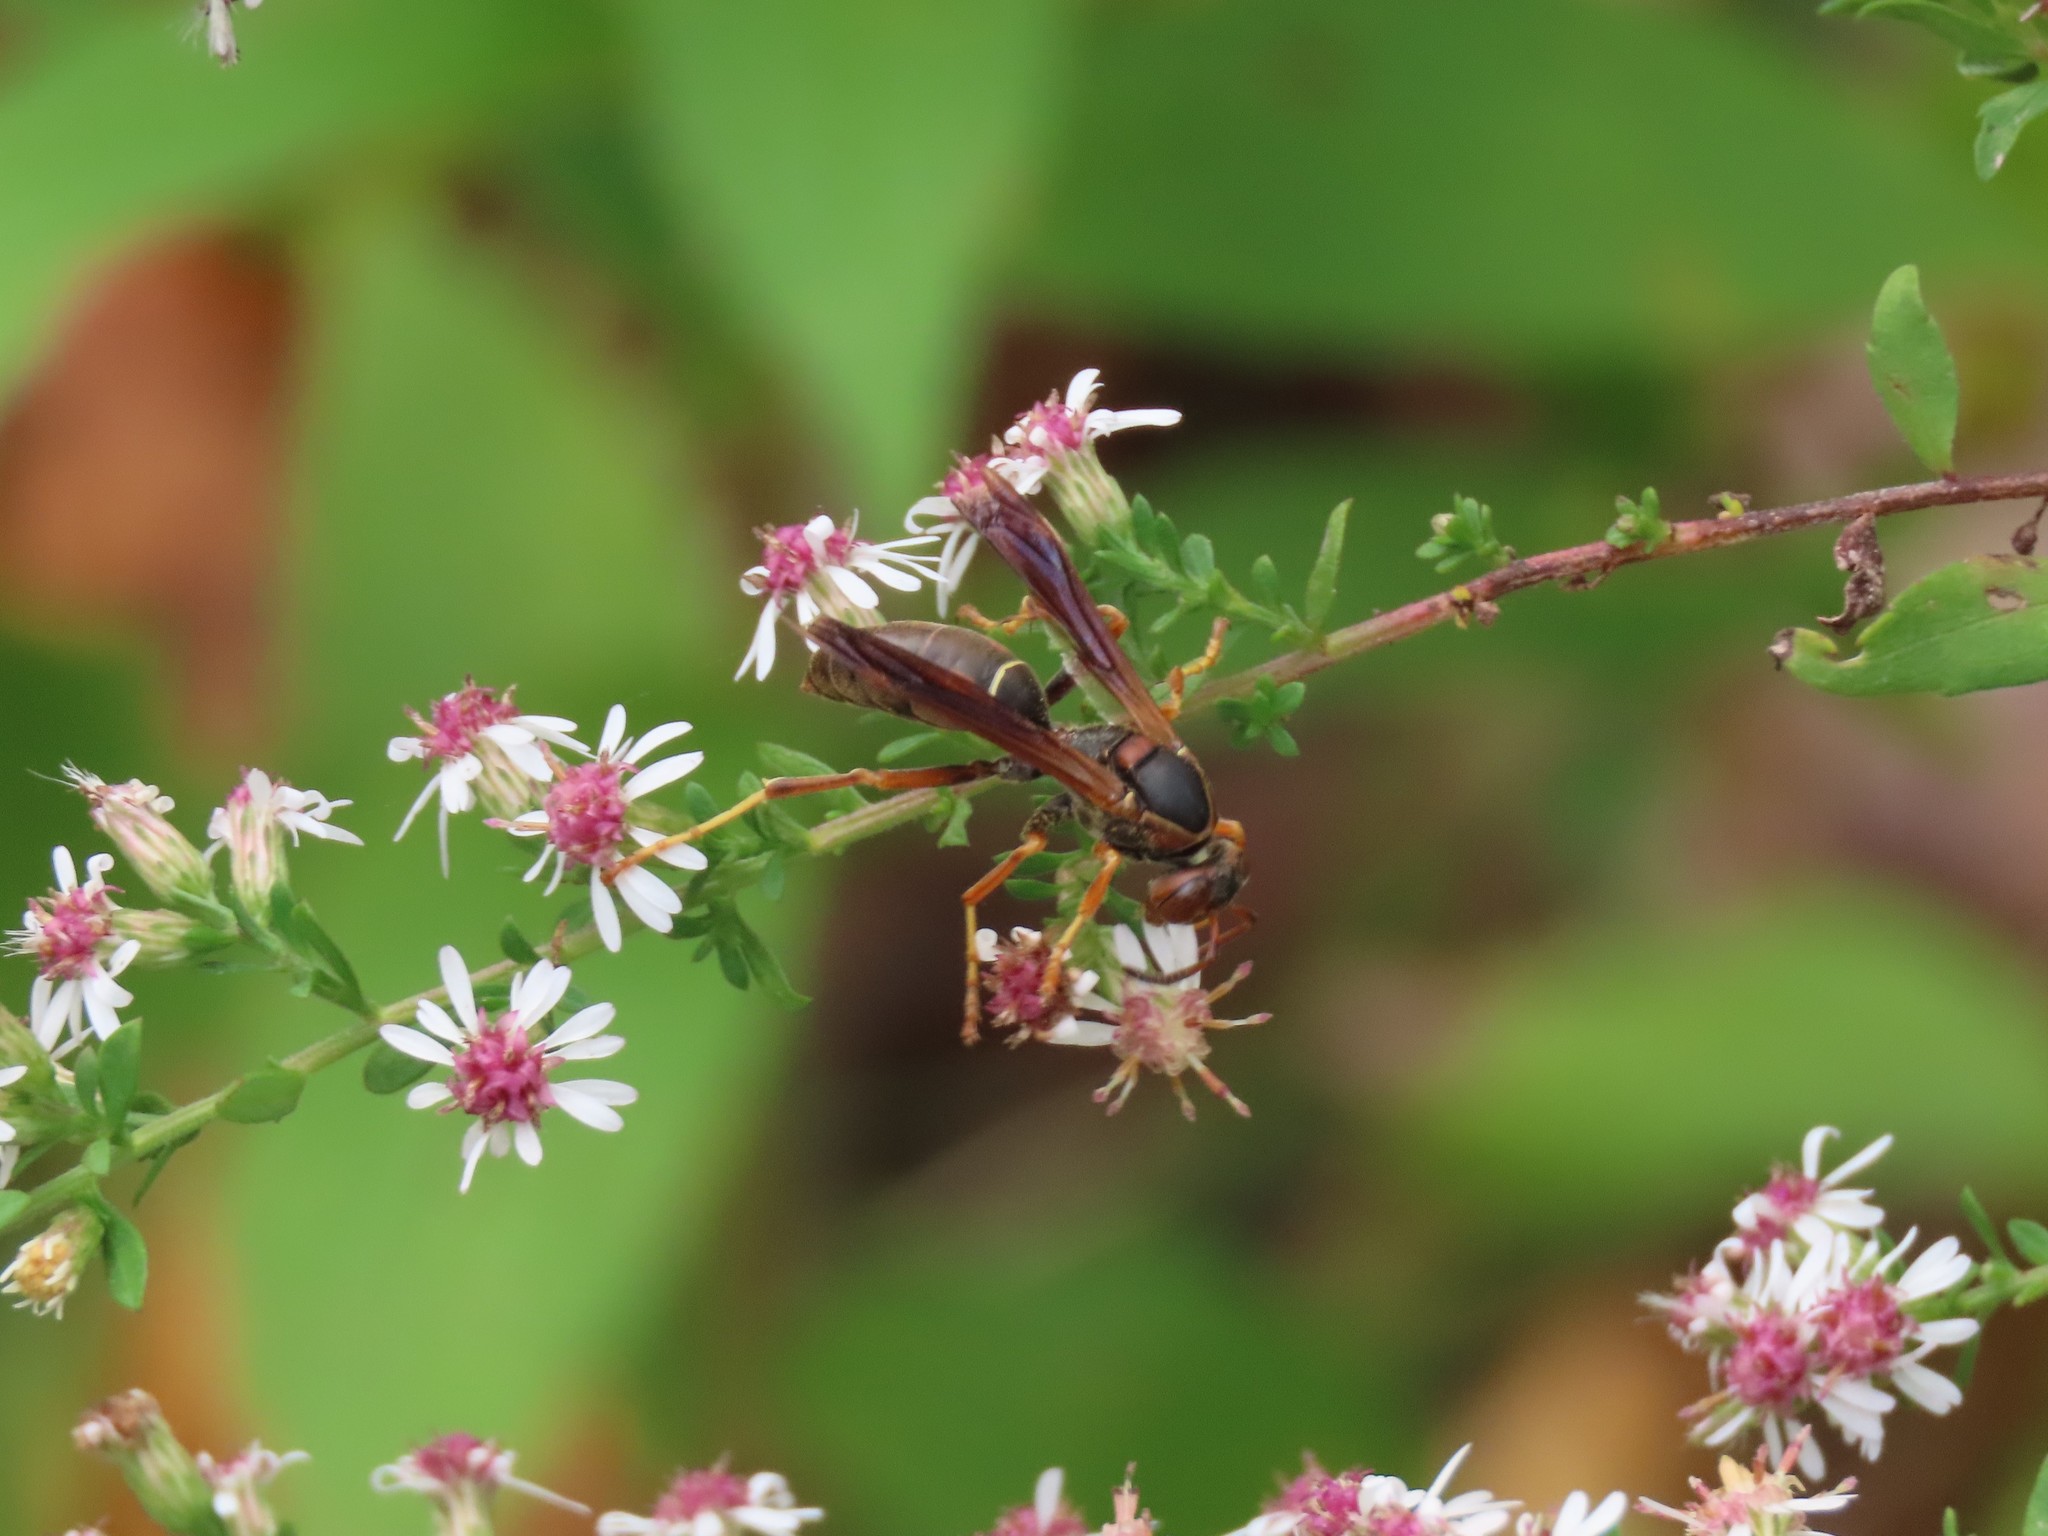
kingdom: Animalia
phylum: Arthropoda
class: Insecta
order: Hymenoptera
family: Eumenidae
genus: Polistes
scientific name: Polistes fuscatus
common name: Dark paper wasp
